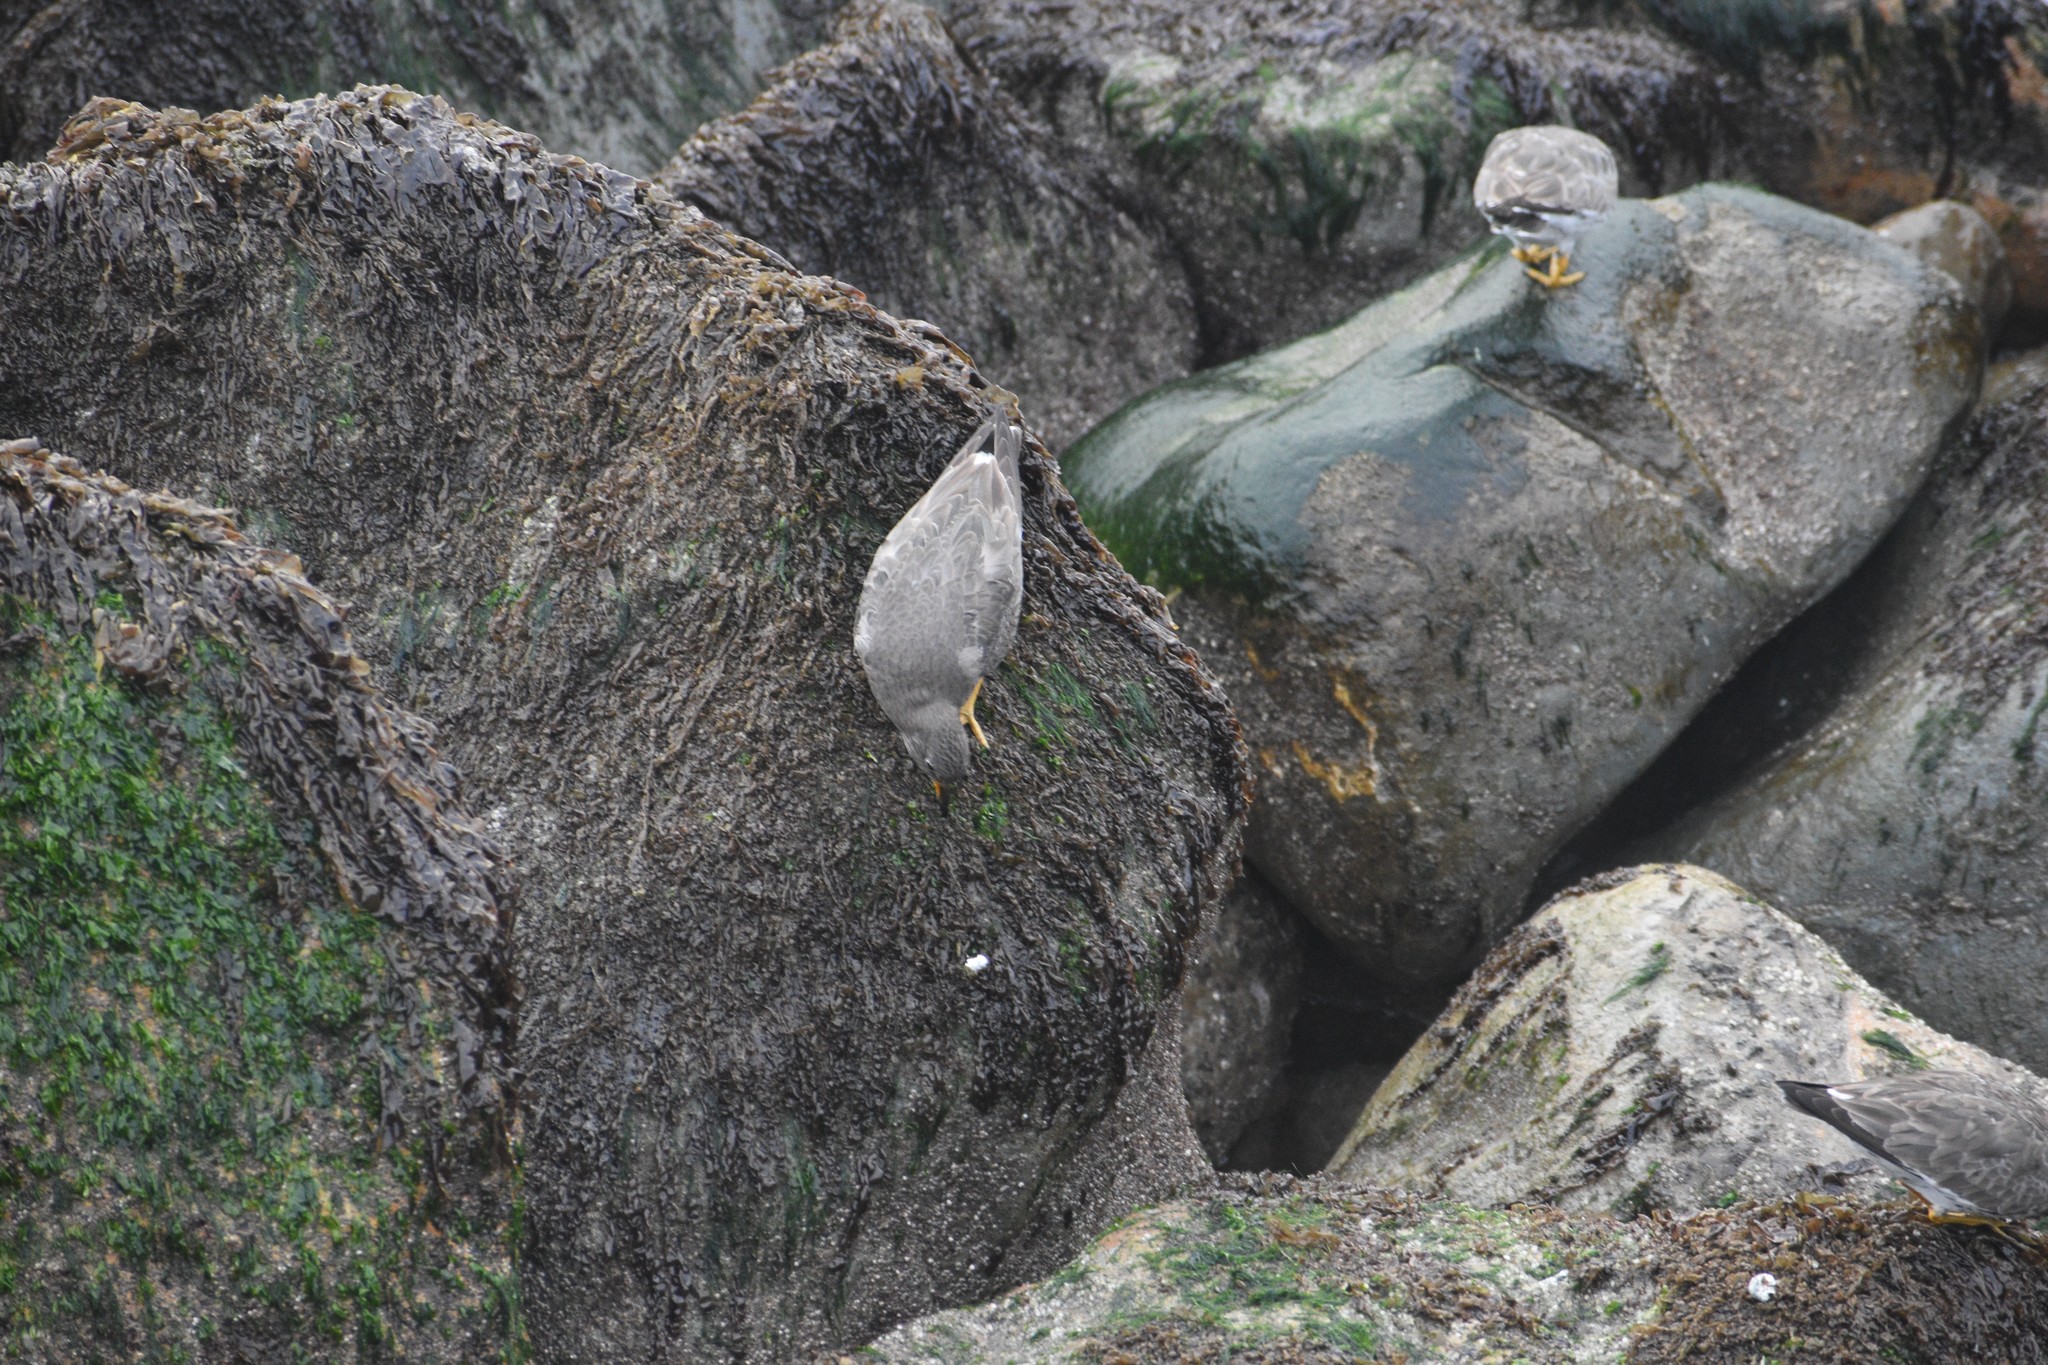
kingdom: Animalia
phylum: Chordata
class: Aves
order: Charadriiformes
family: Scolopacidae
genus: Calidris
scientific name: Calidris virgata
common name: Surfbird
